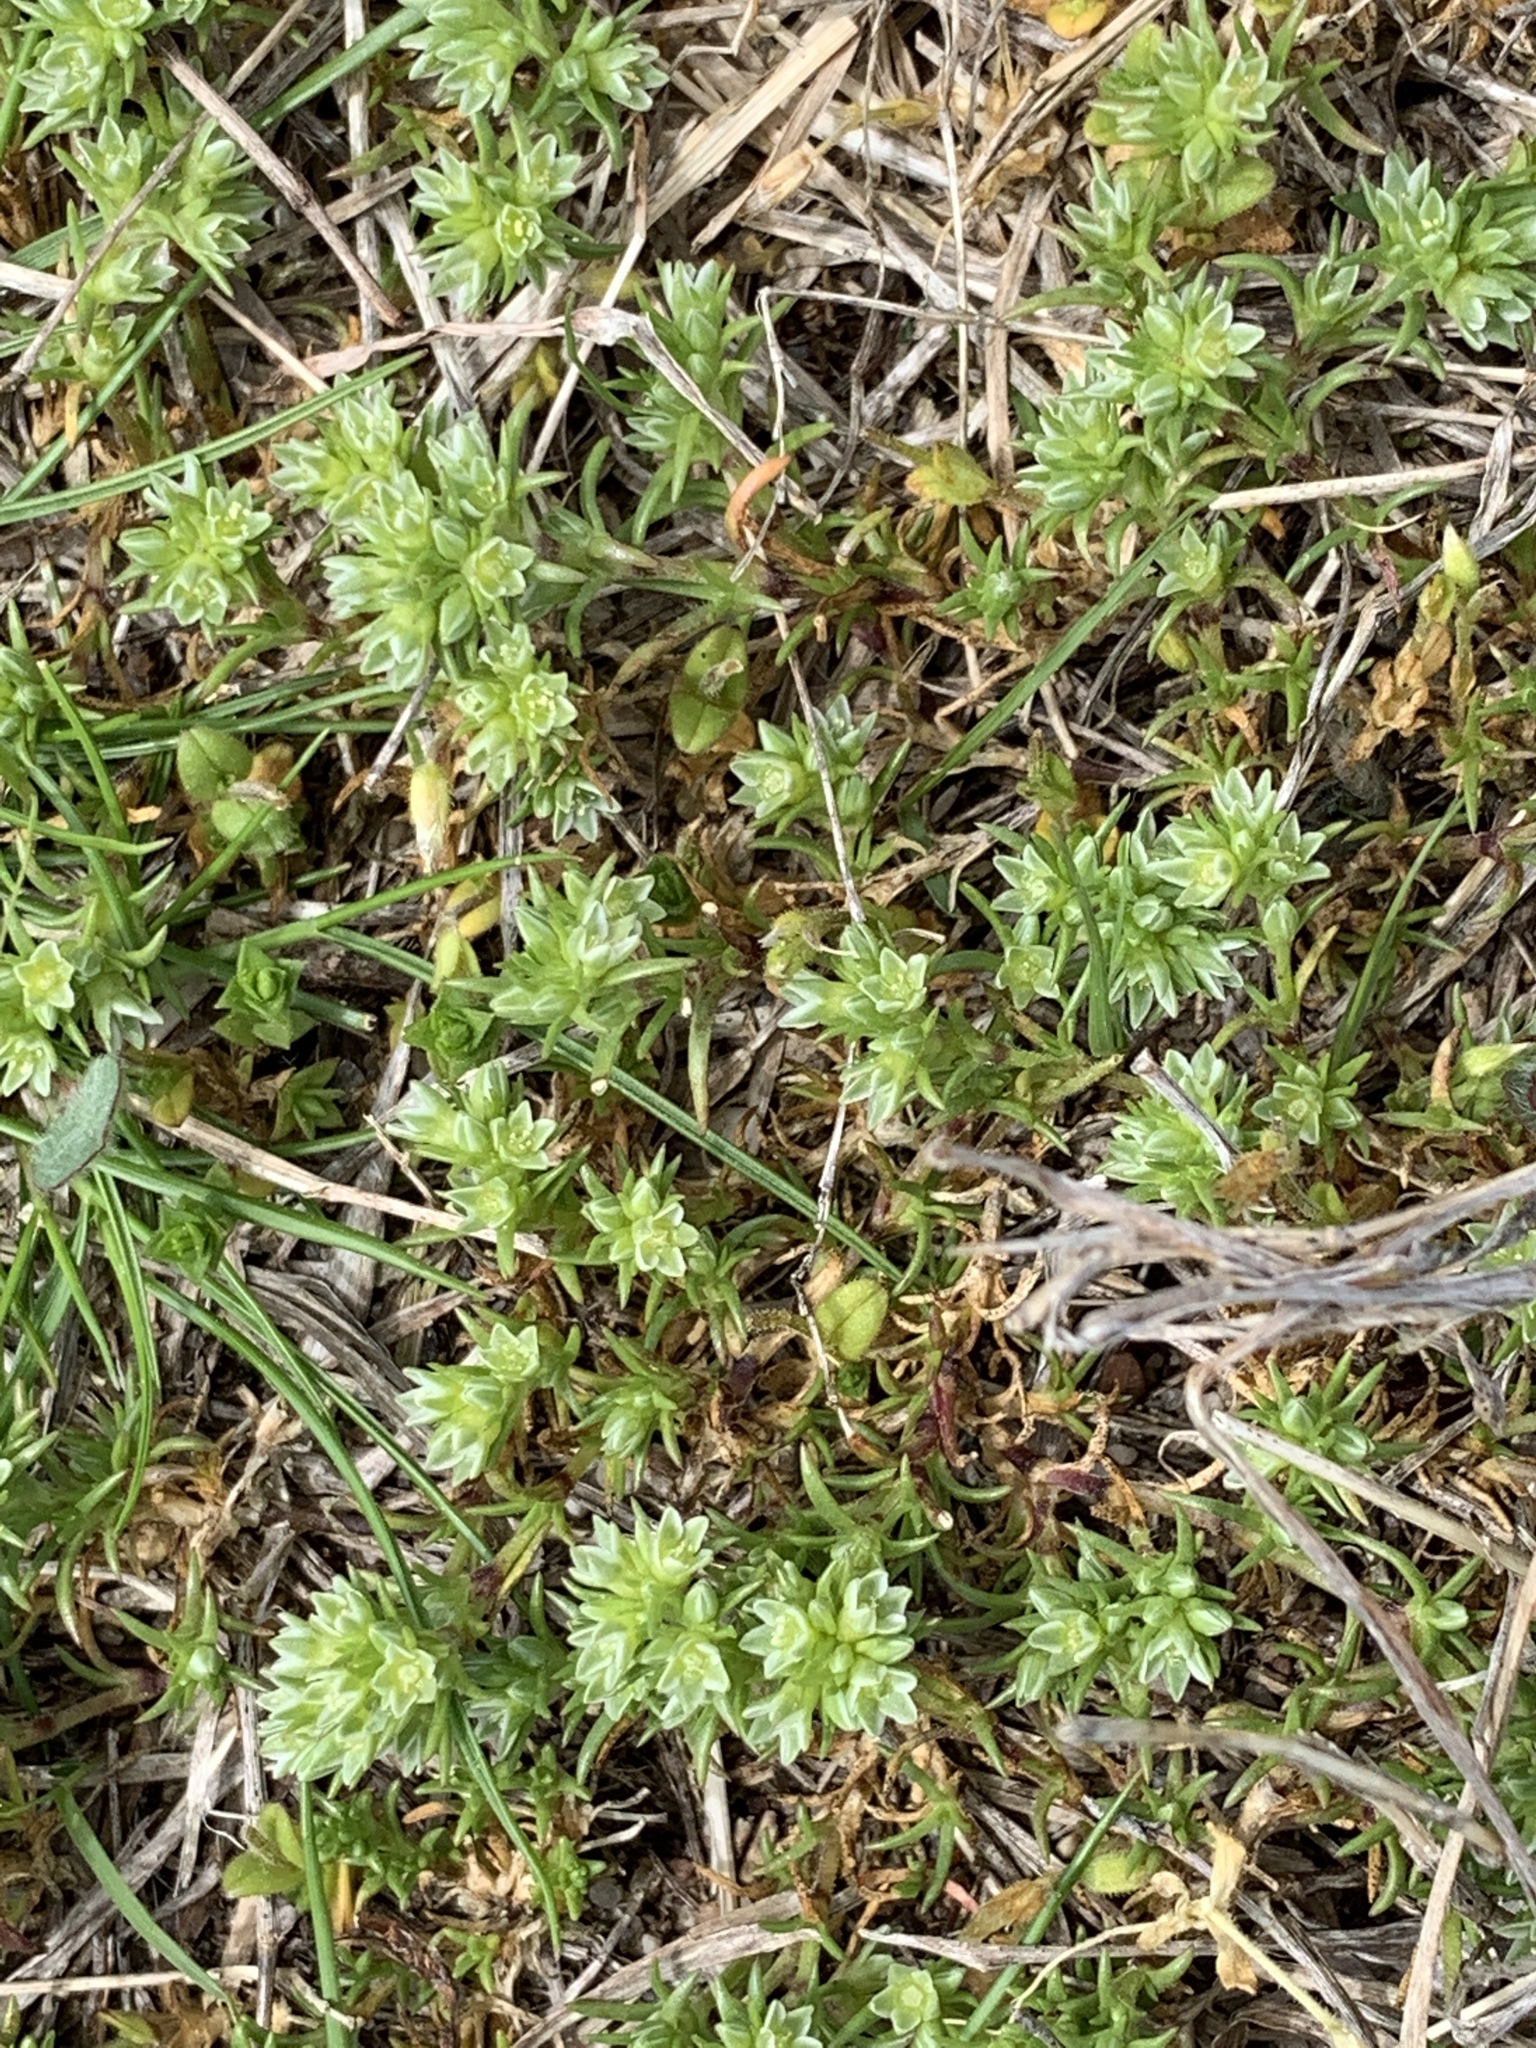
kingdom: Plantae
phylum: Tracheophyta
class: Magnoliopsida
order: Caryophyllales
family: Caryophyllaceae
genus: Scleranthus
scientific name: Scleranthus annuus
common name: Annual knawel
